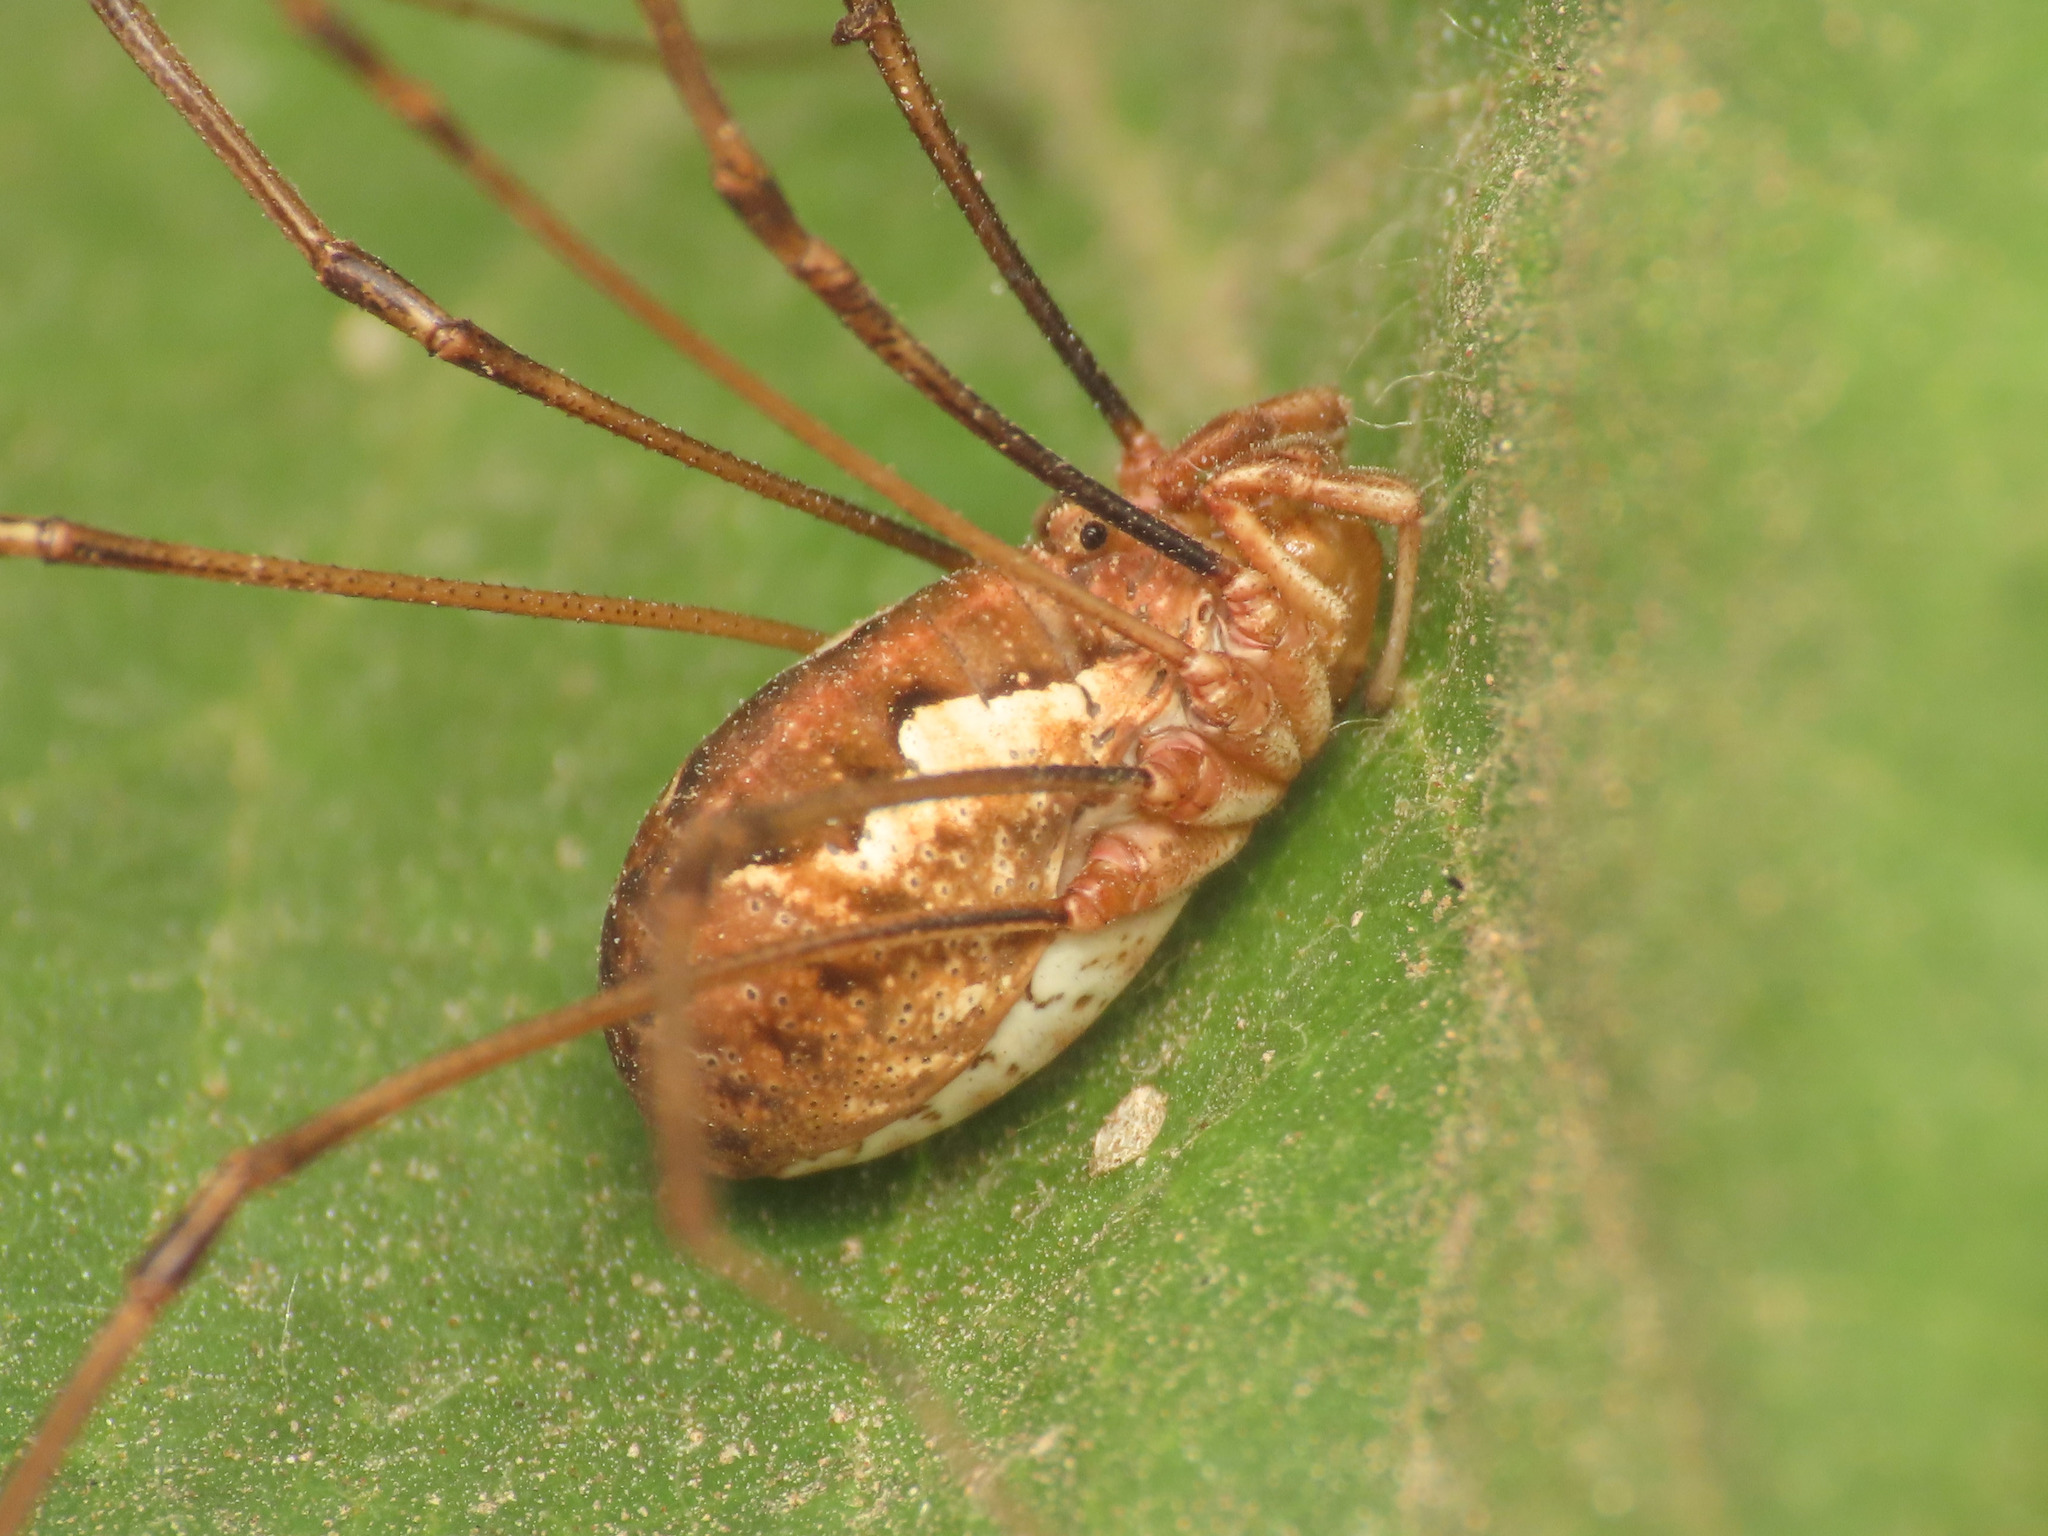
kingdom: Animalia
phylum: Arthropoda
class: Arachnida
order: Opiliones
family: Phalangiidae
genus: Dasylobus
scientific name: Dasylobus argentatus
